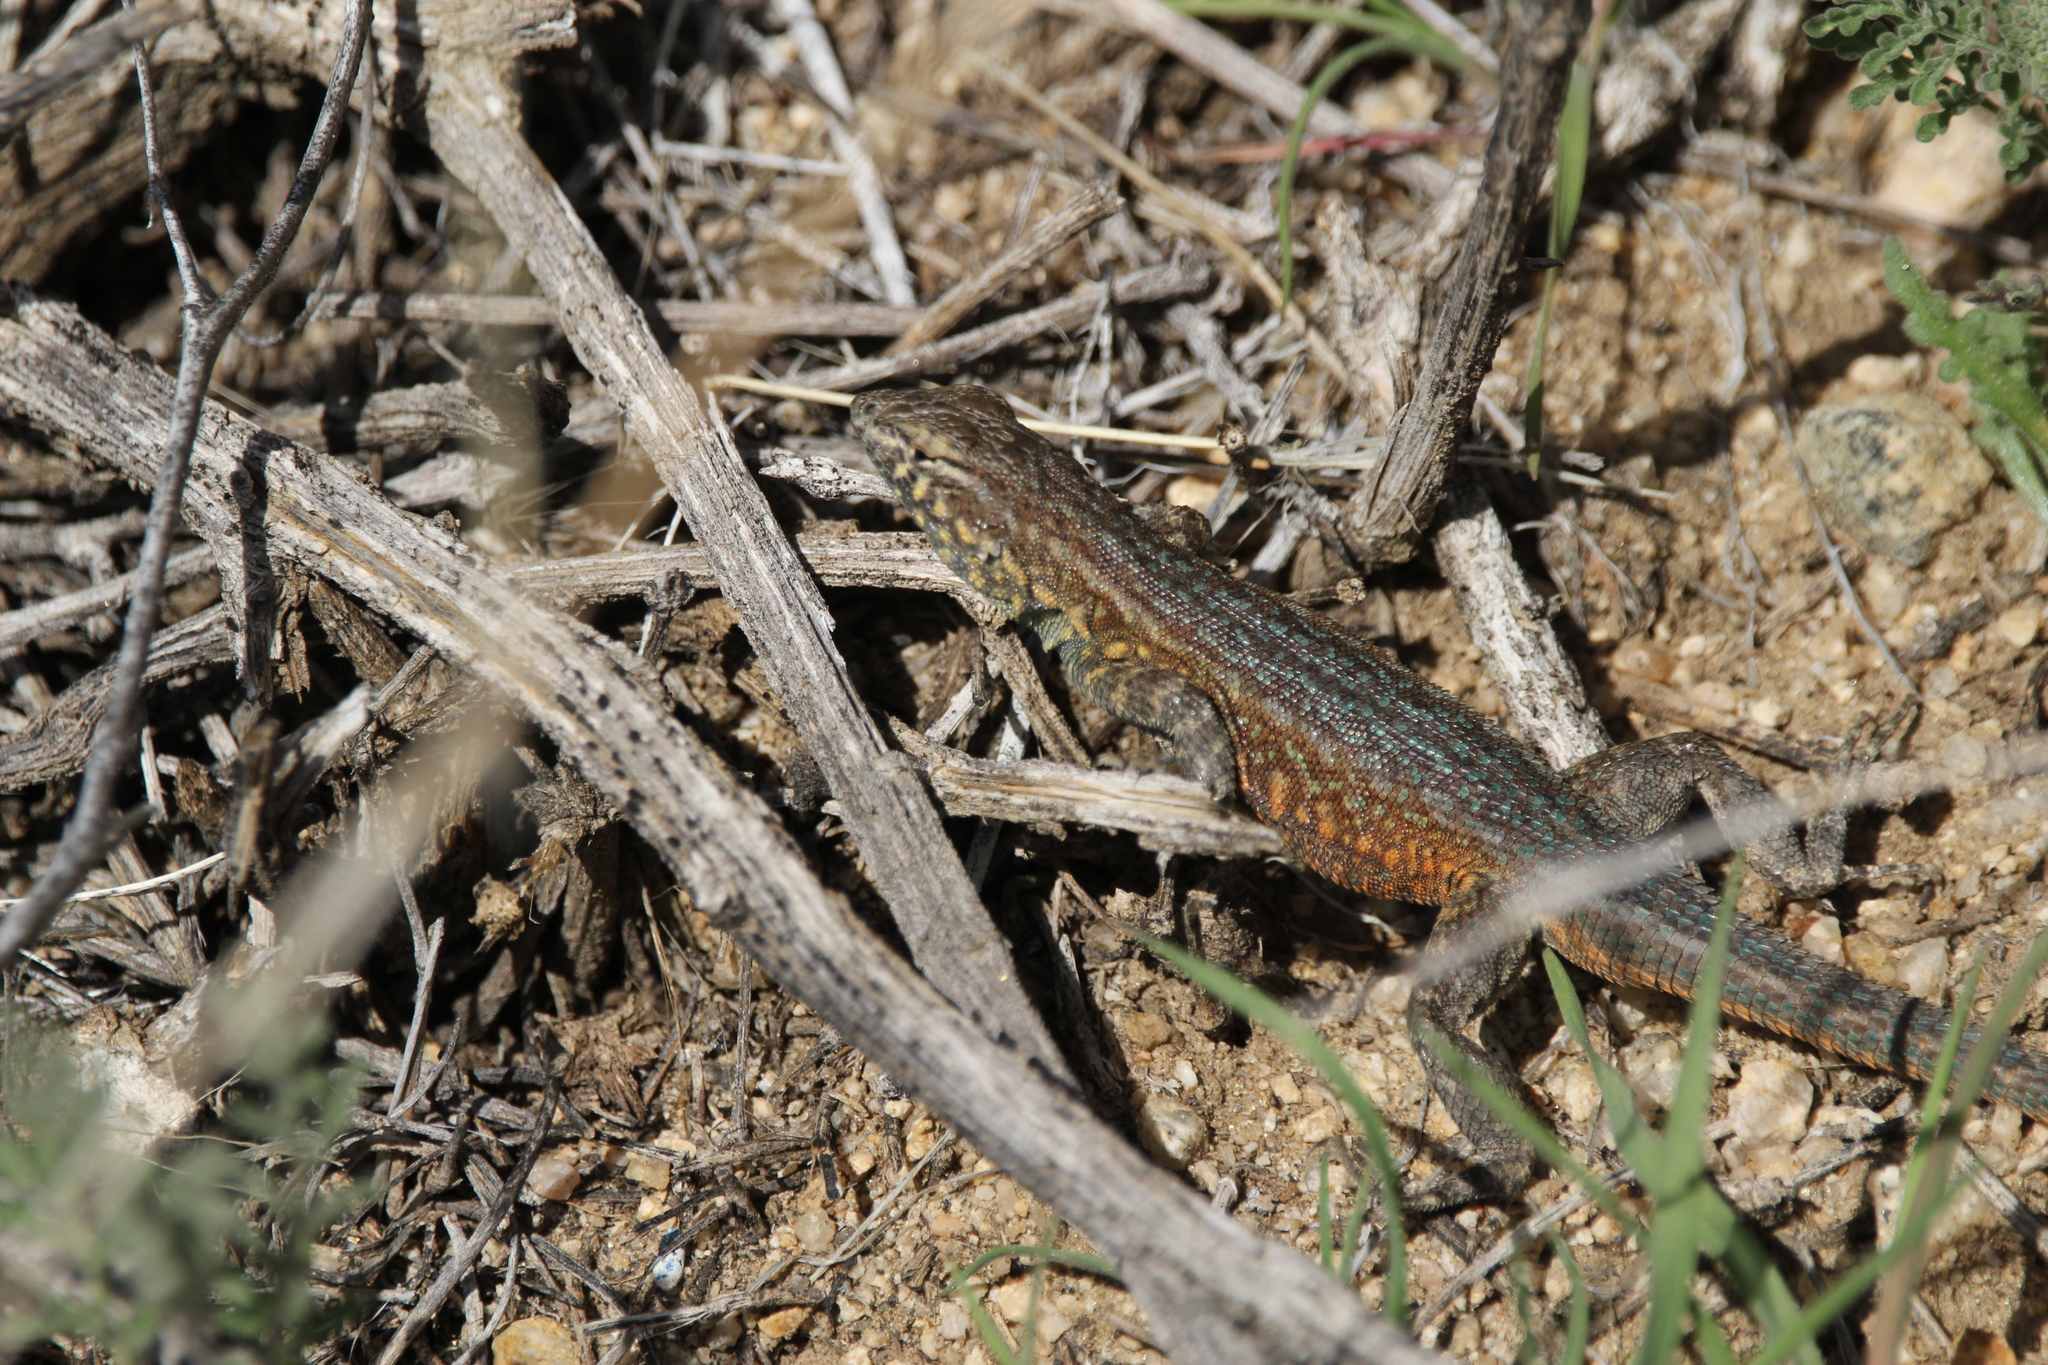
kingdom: Animalia
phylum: Chordata
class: Squamata
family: Phrynosomatidae
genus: Uta
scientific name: Uta stansburiana
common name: Side-blotched lizard
